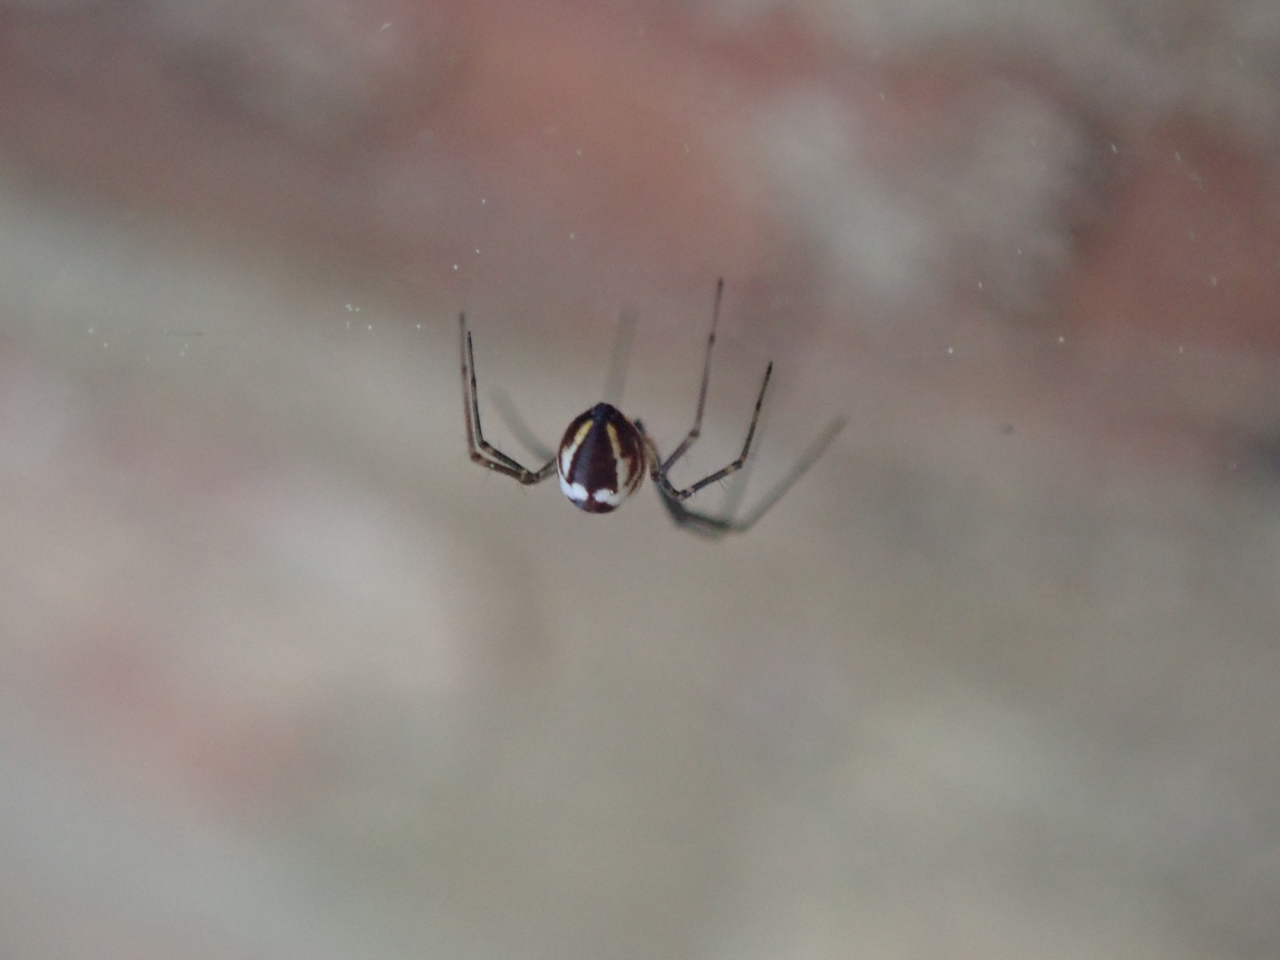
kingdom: Animalia
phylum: Arthropoda
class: Arachnida
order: Araneae
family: Linyphiidae
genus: Neriene
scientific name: Neriene radiata
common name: Filmy dome spider
